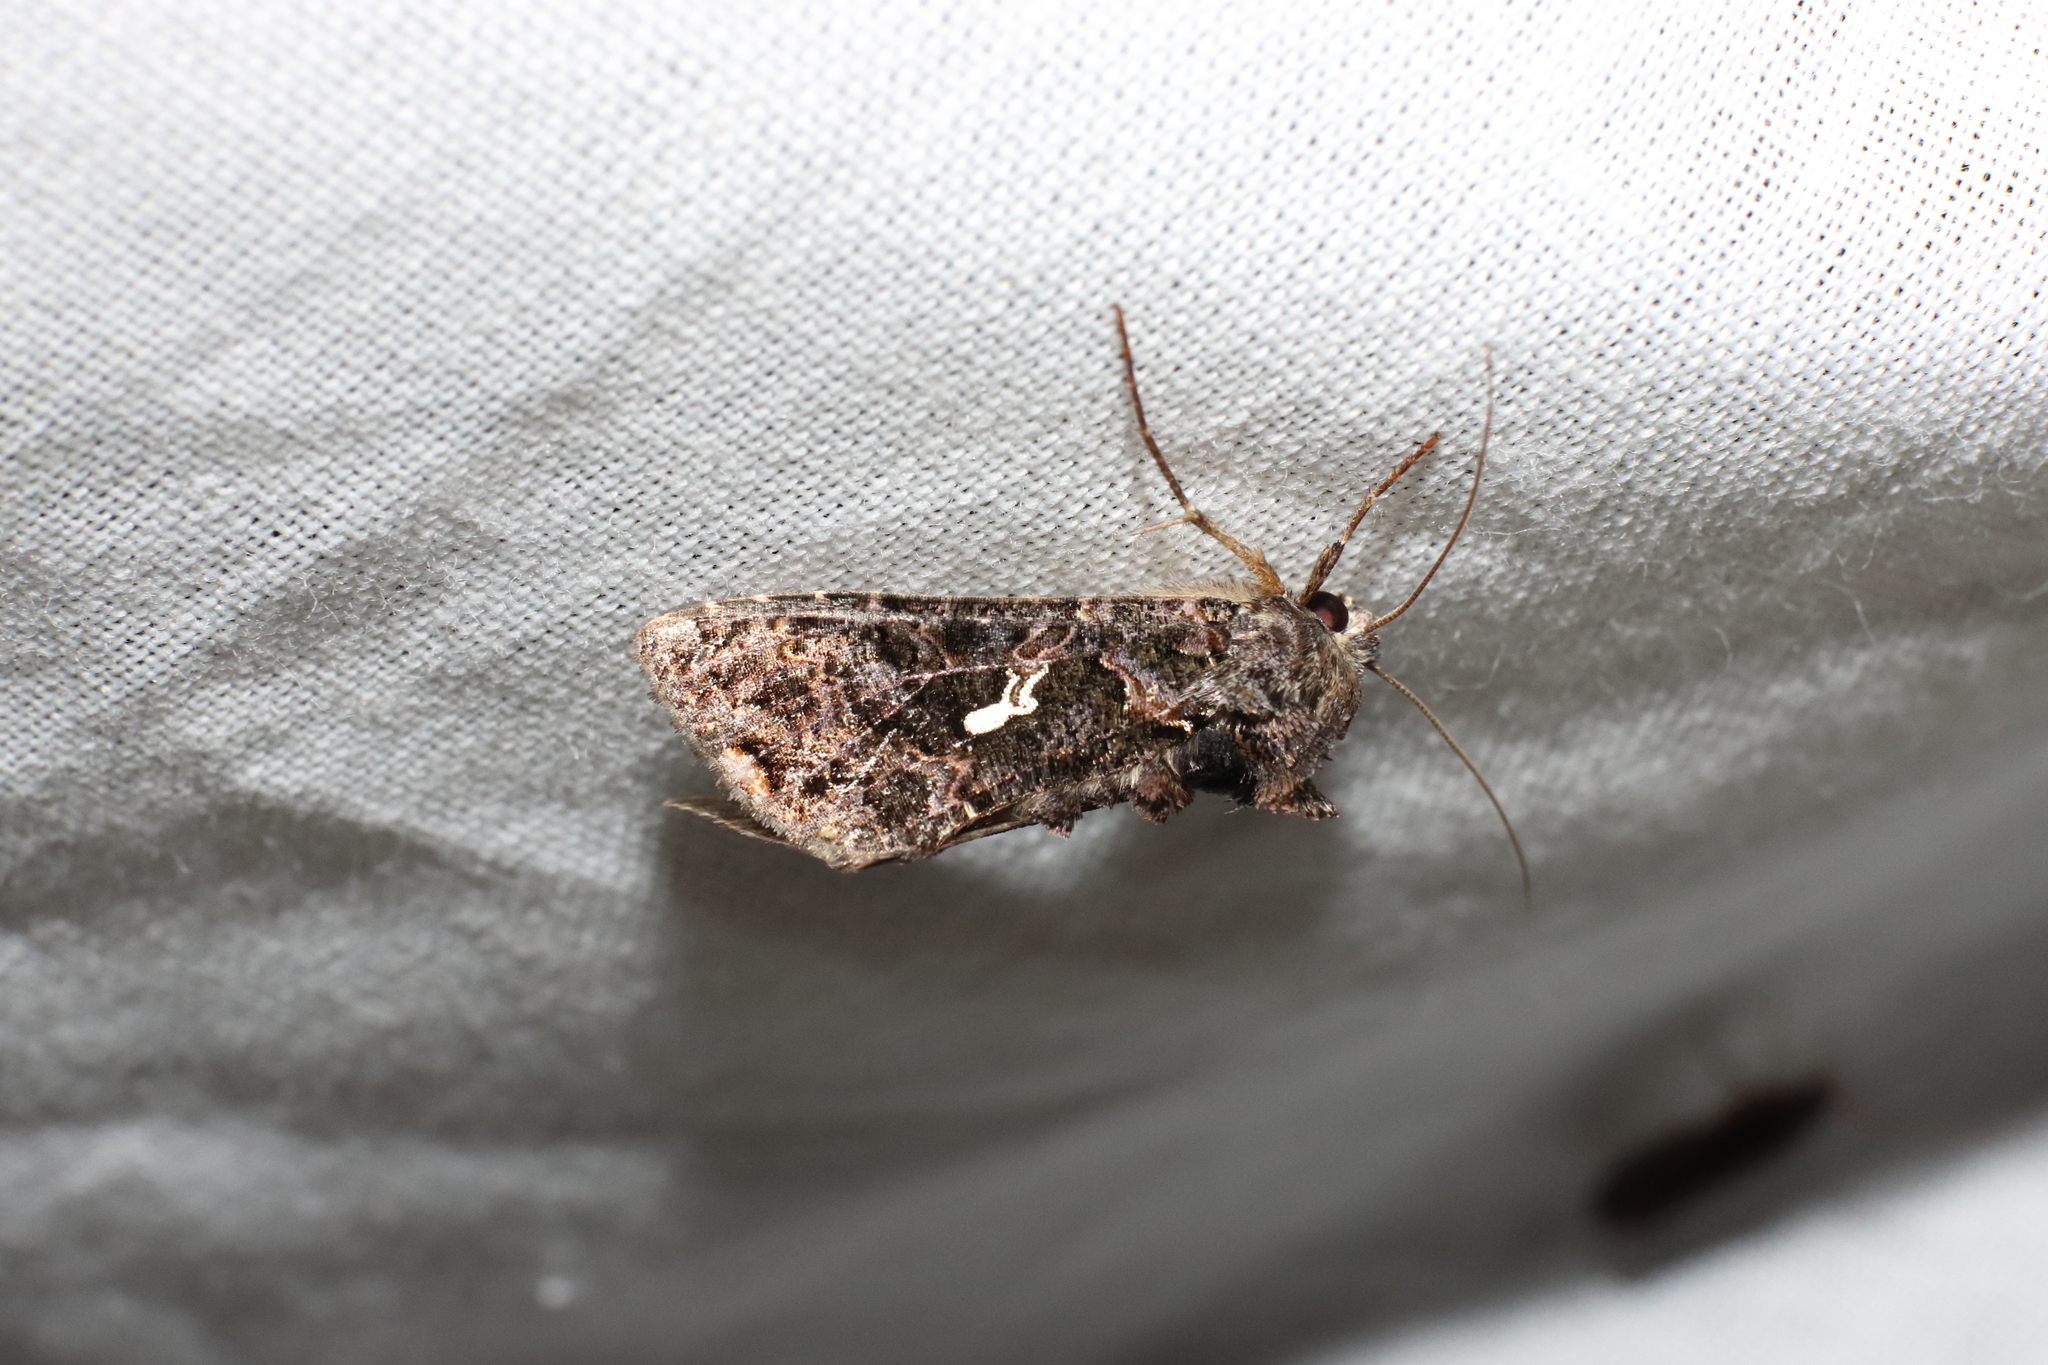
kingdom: Animalia
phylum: Arthropoda
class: Insecta
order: Lepidoptera
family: Noctuidae
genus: Ctenoplusia
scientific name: Ctenoplusia limbirena
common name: Scar bank gem
